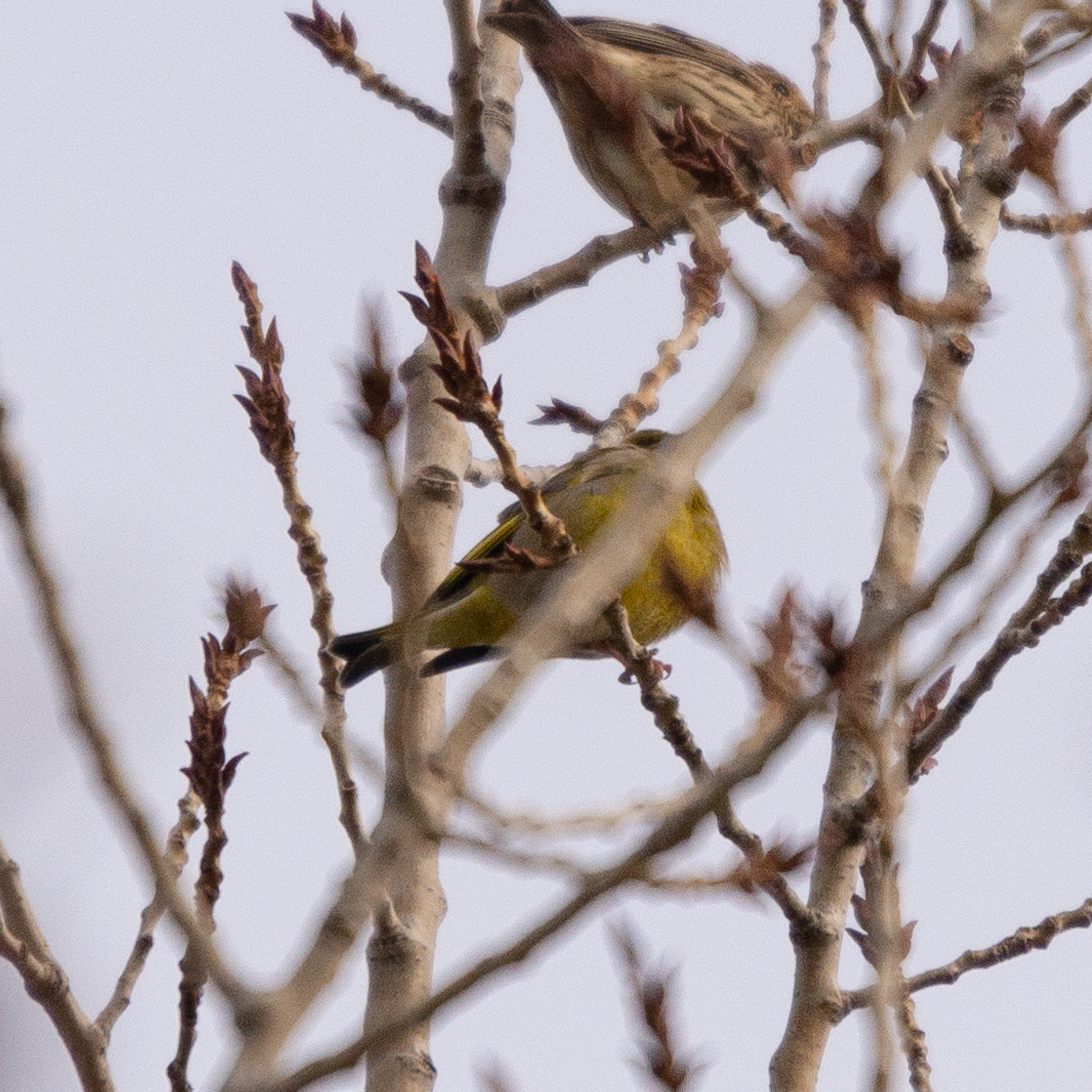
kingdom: Plantae
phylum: Tracheophyta
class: Liliopsida
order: Poales
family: Poaceae
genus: Chloris
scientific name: Chloris chloris
